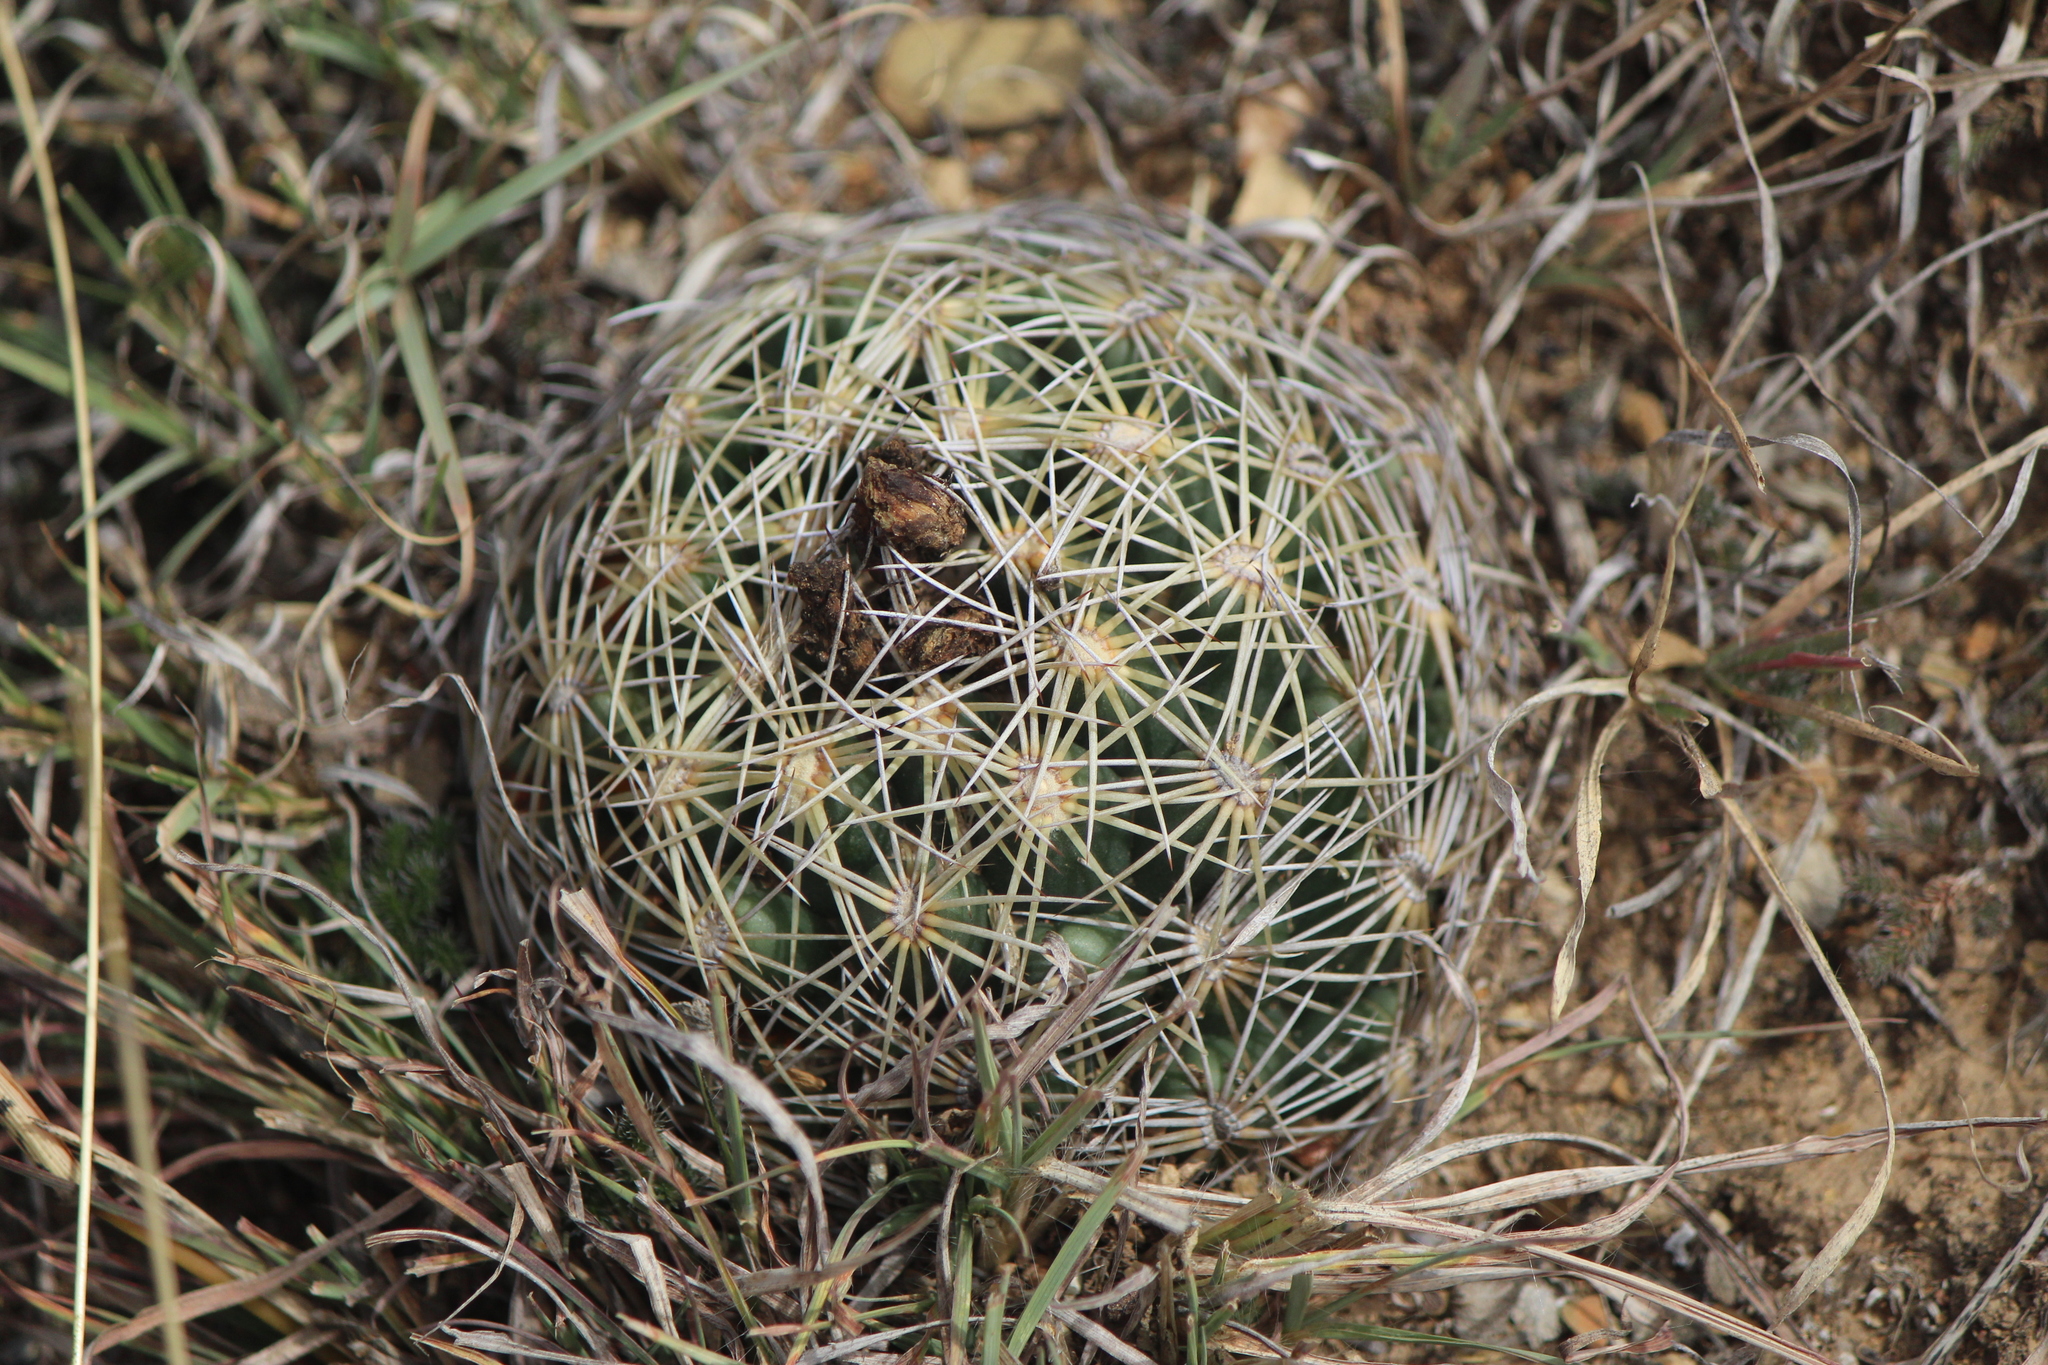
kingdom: Plantae
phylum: Tracheophyta
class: Magnoliopsida
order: Caryophyllales
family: Cactaceae
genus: Coryphantha
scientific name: Coryphantha cornifera
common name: Rhinoceros cactus
